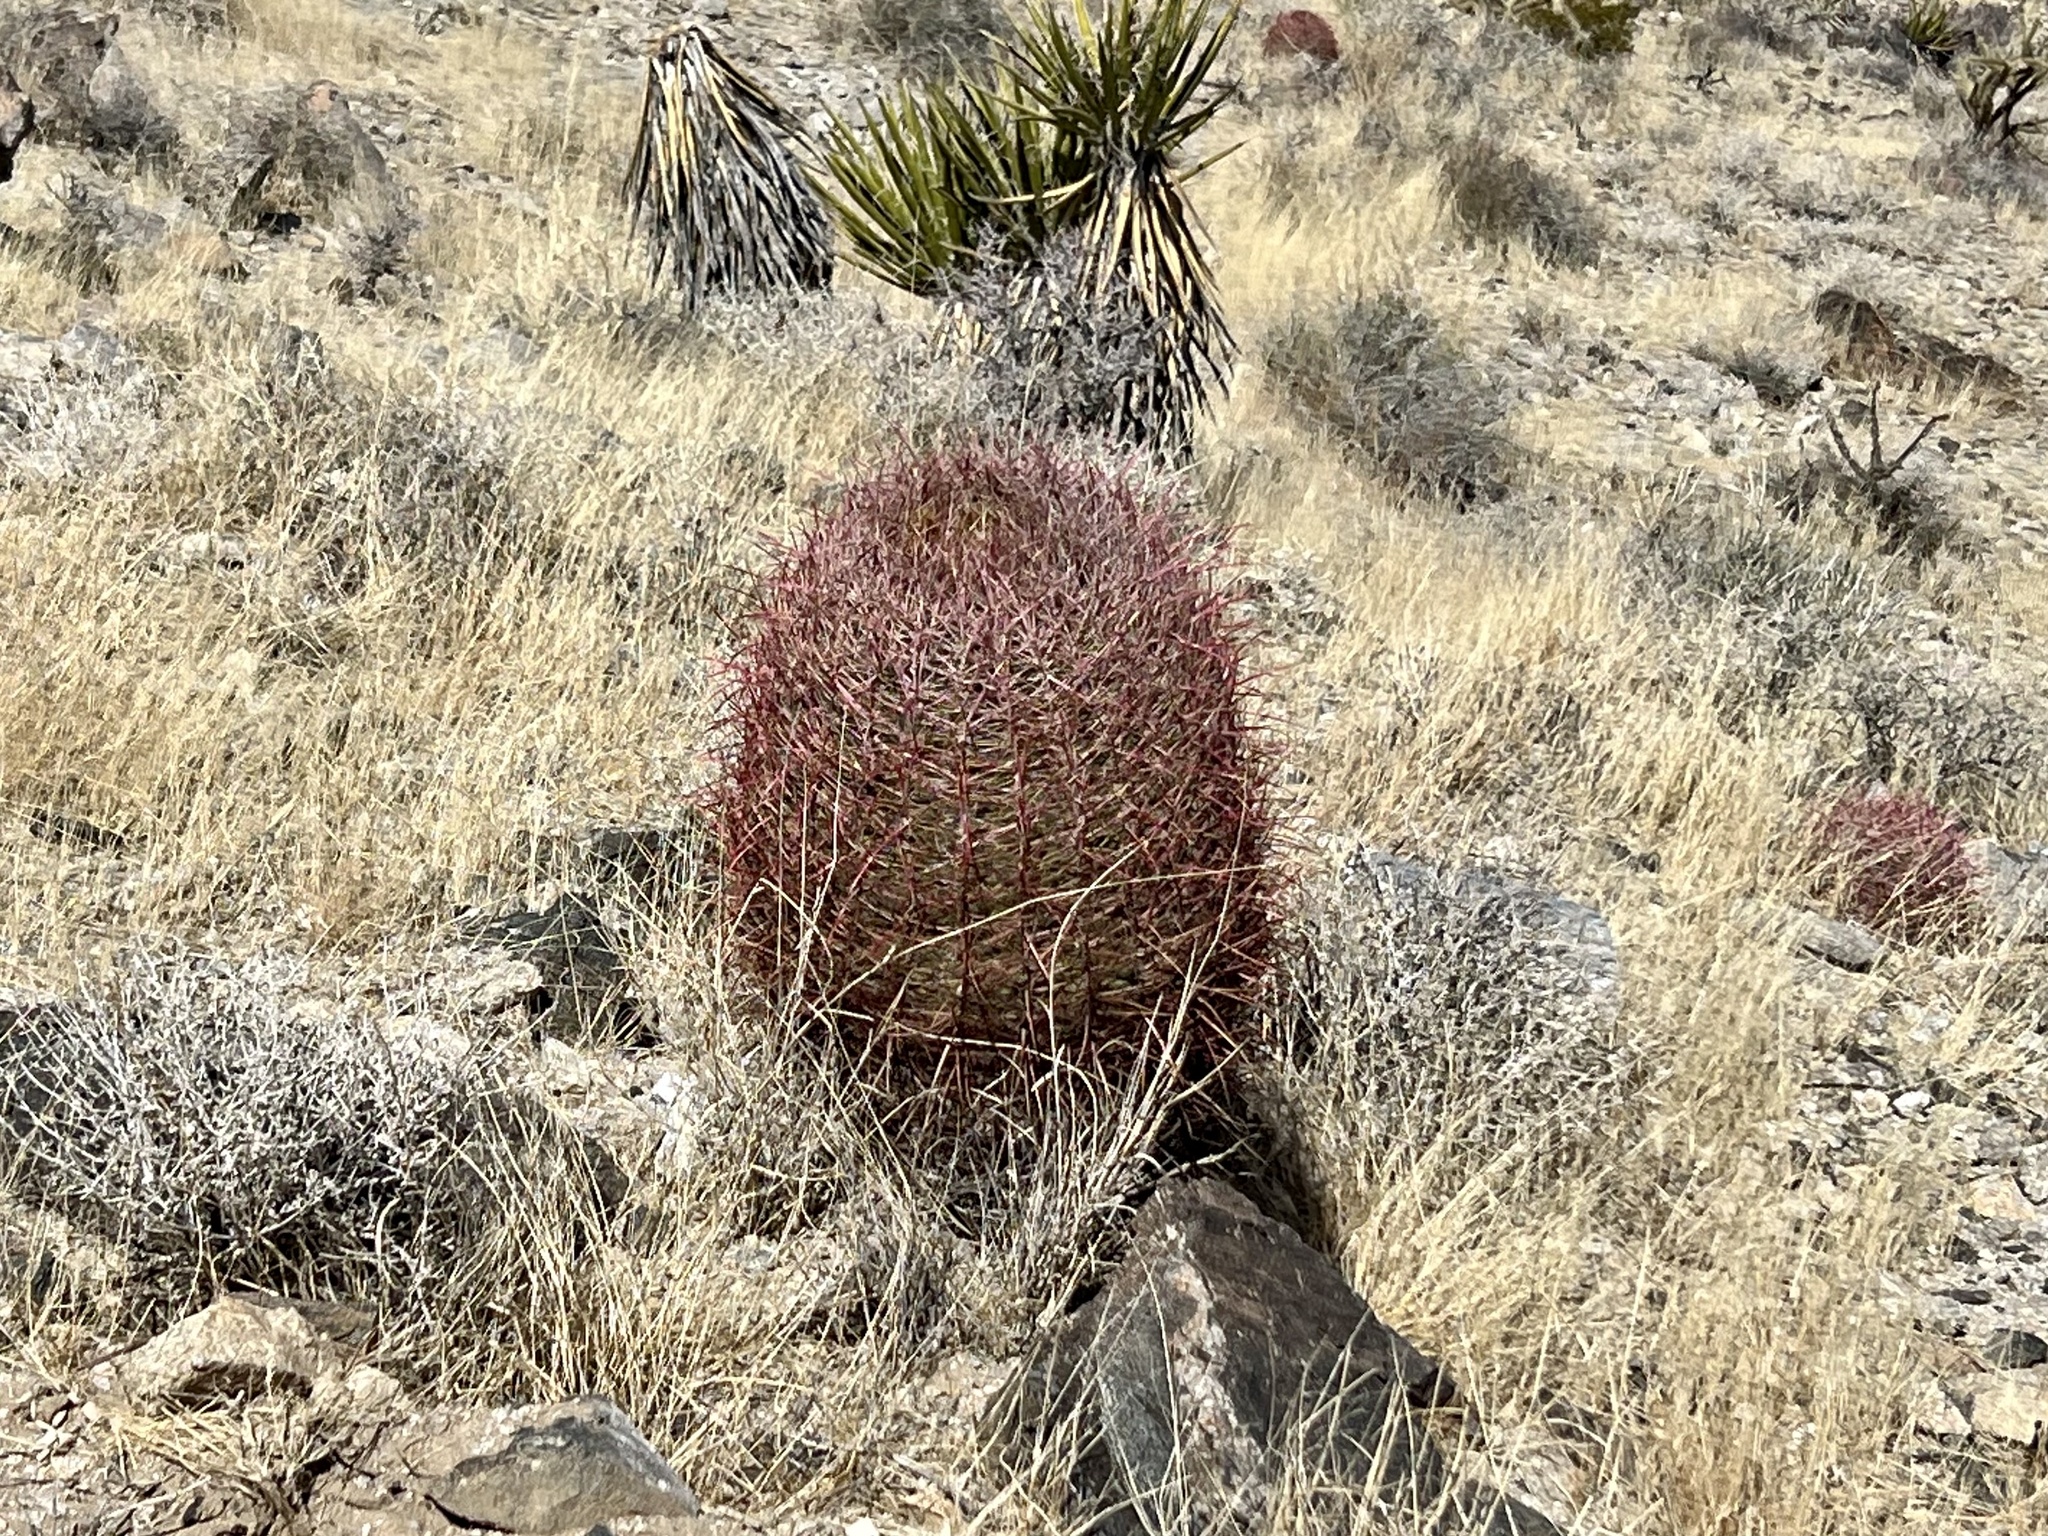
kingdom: Plantae
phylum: Tracheophyta
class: Magnoliopsida
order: Caryophyllales
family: Cactaceae
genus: Ferocactus
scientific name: Ferocactus cylindraceus
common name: California barrel cactus
